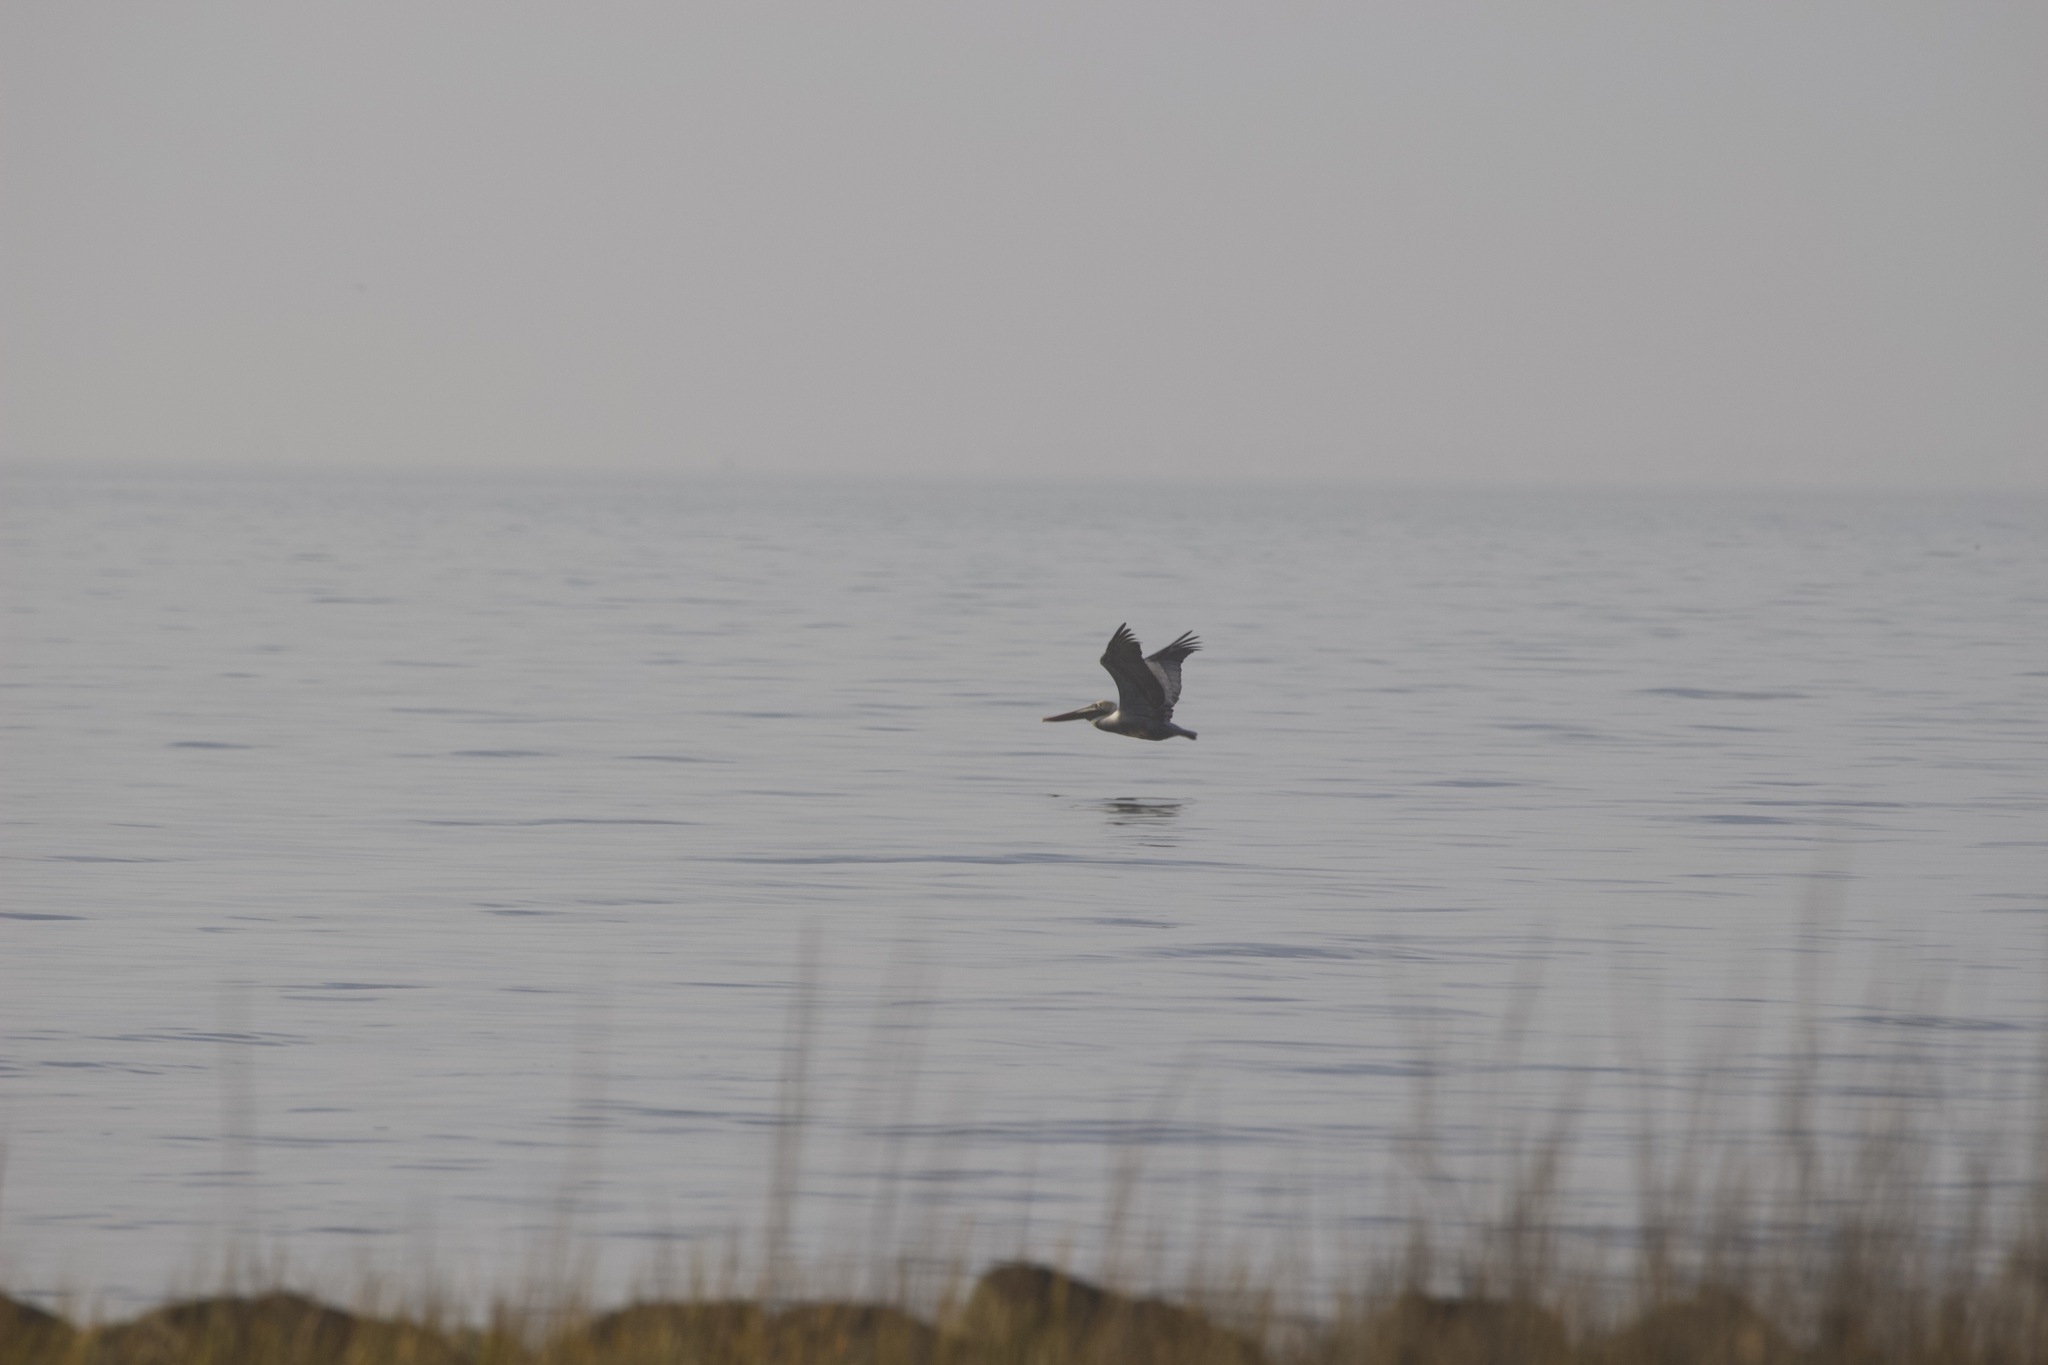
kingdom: Animalia
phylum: Chordata
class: Aves
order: Pelecaniformes
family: Pelecanidae
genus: Pelecanus
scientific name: Pelecanus occidentalis
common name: Brown pelican
